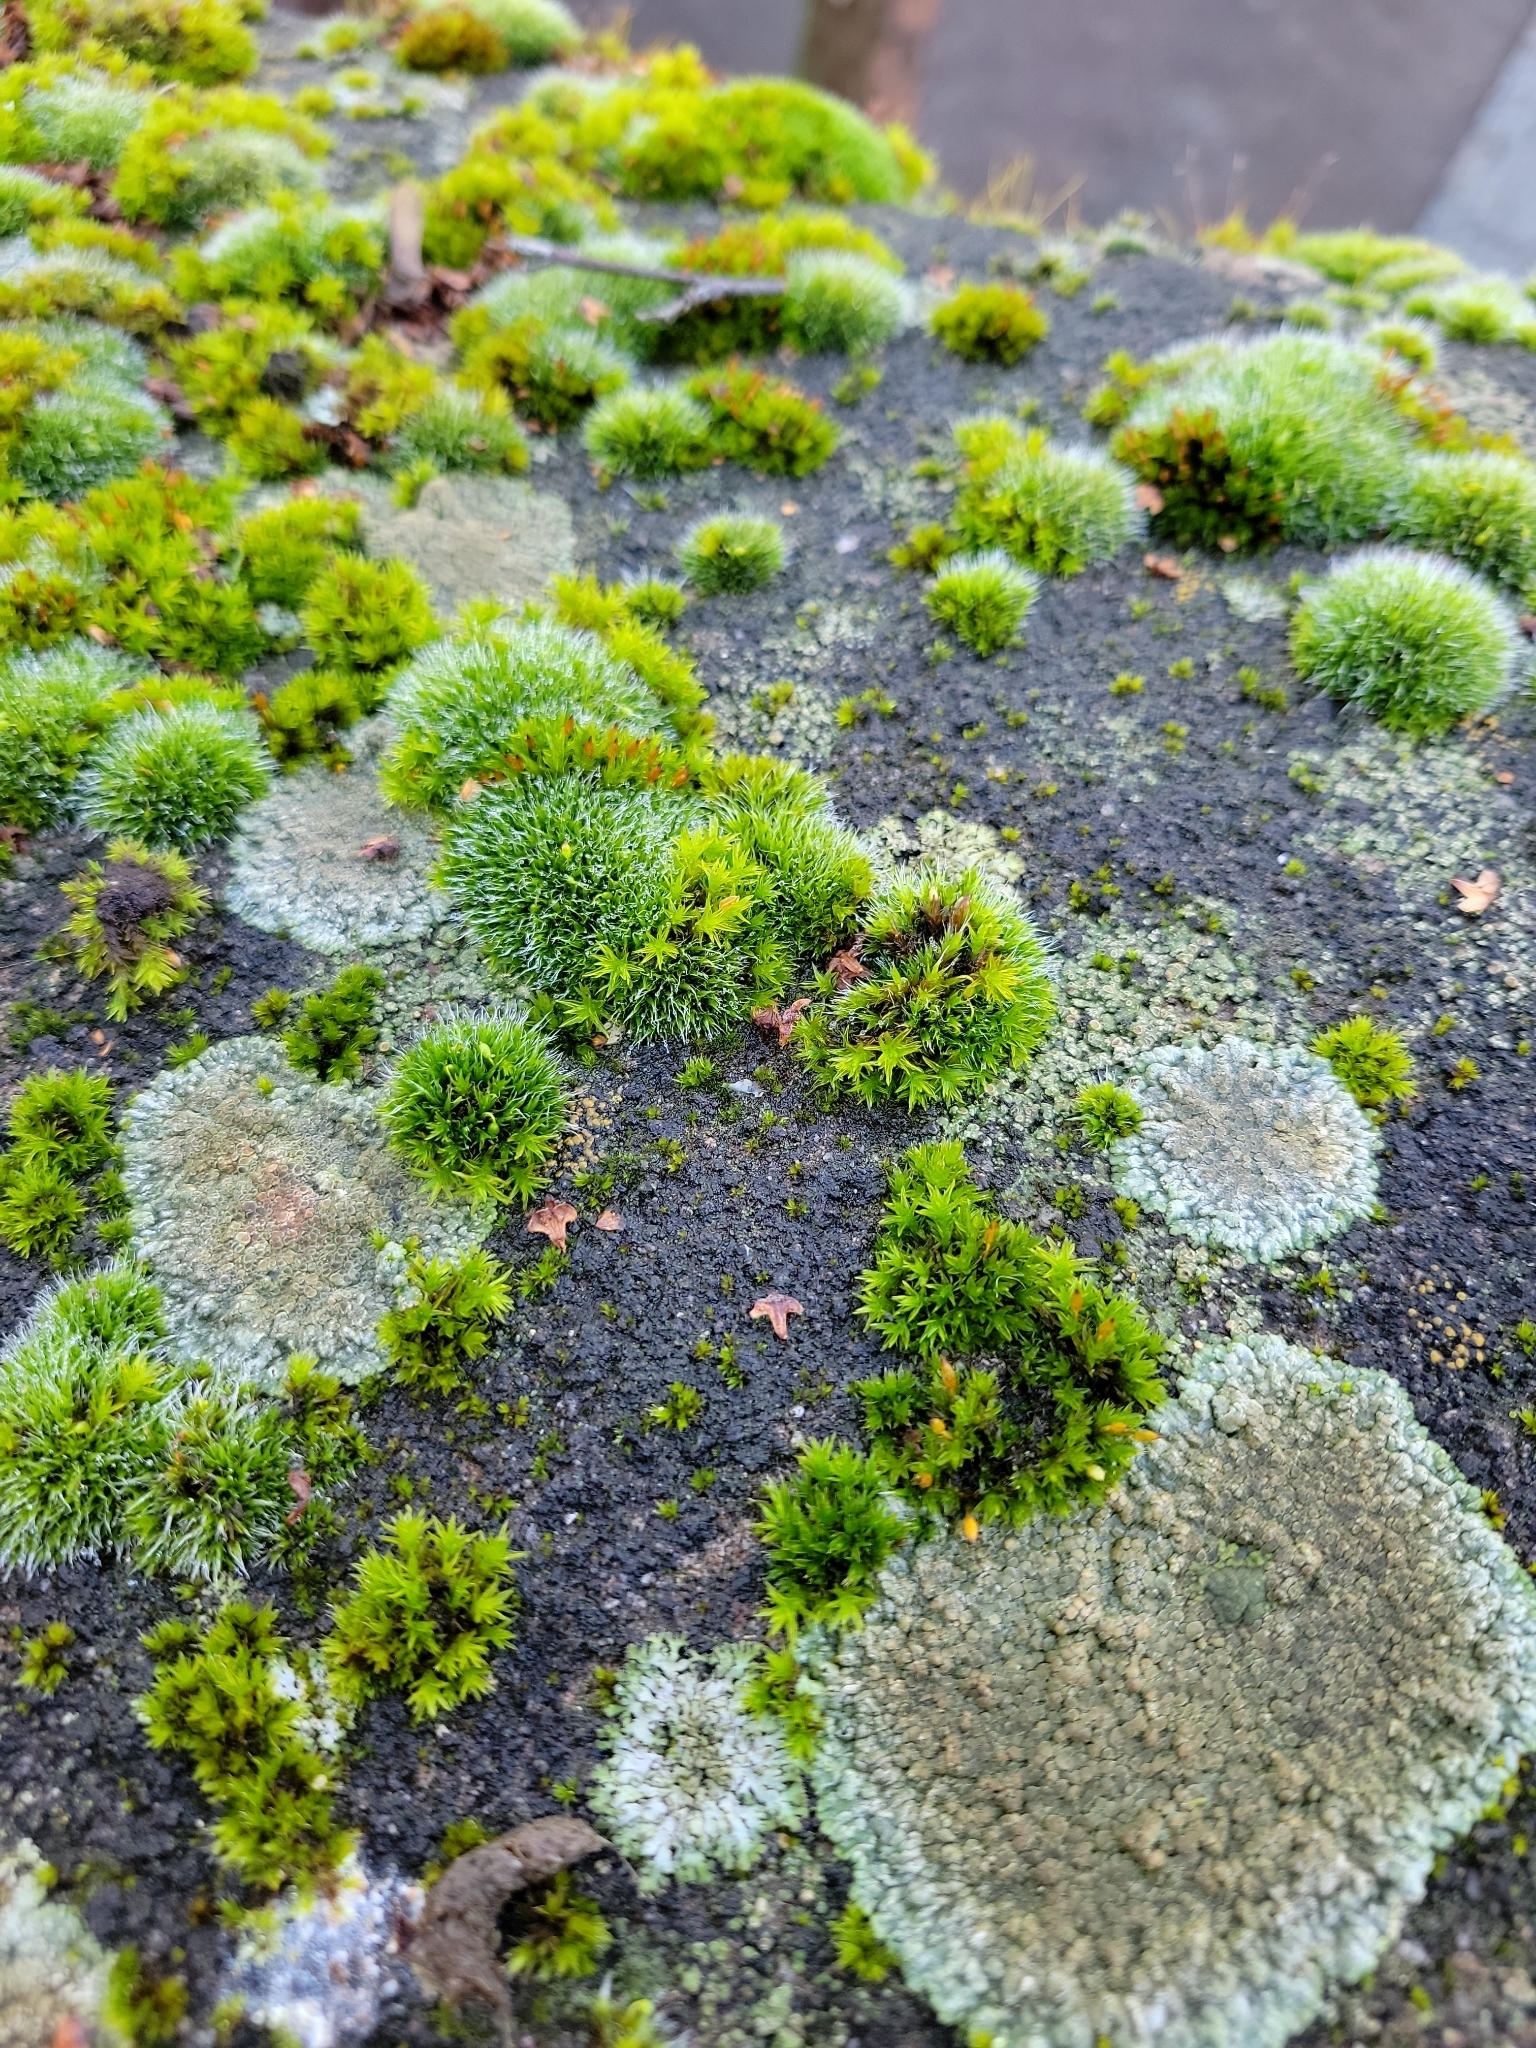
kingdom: Plantae
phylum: Bryophyta
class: Bryopsida
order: Grimmiales
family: Grimmiaceae
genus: Grimmia
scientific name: Grimmia pulvinata
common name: Grey-cushioned grimmia
